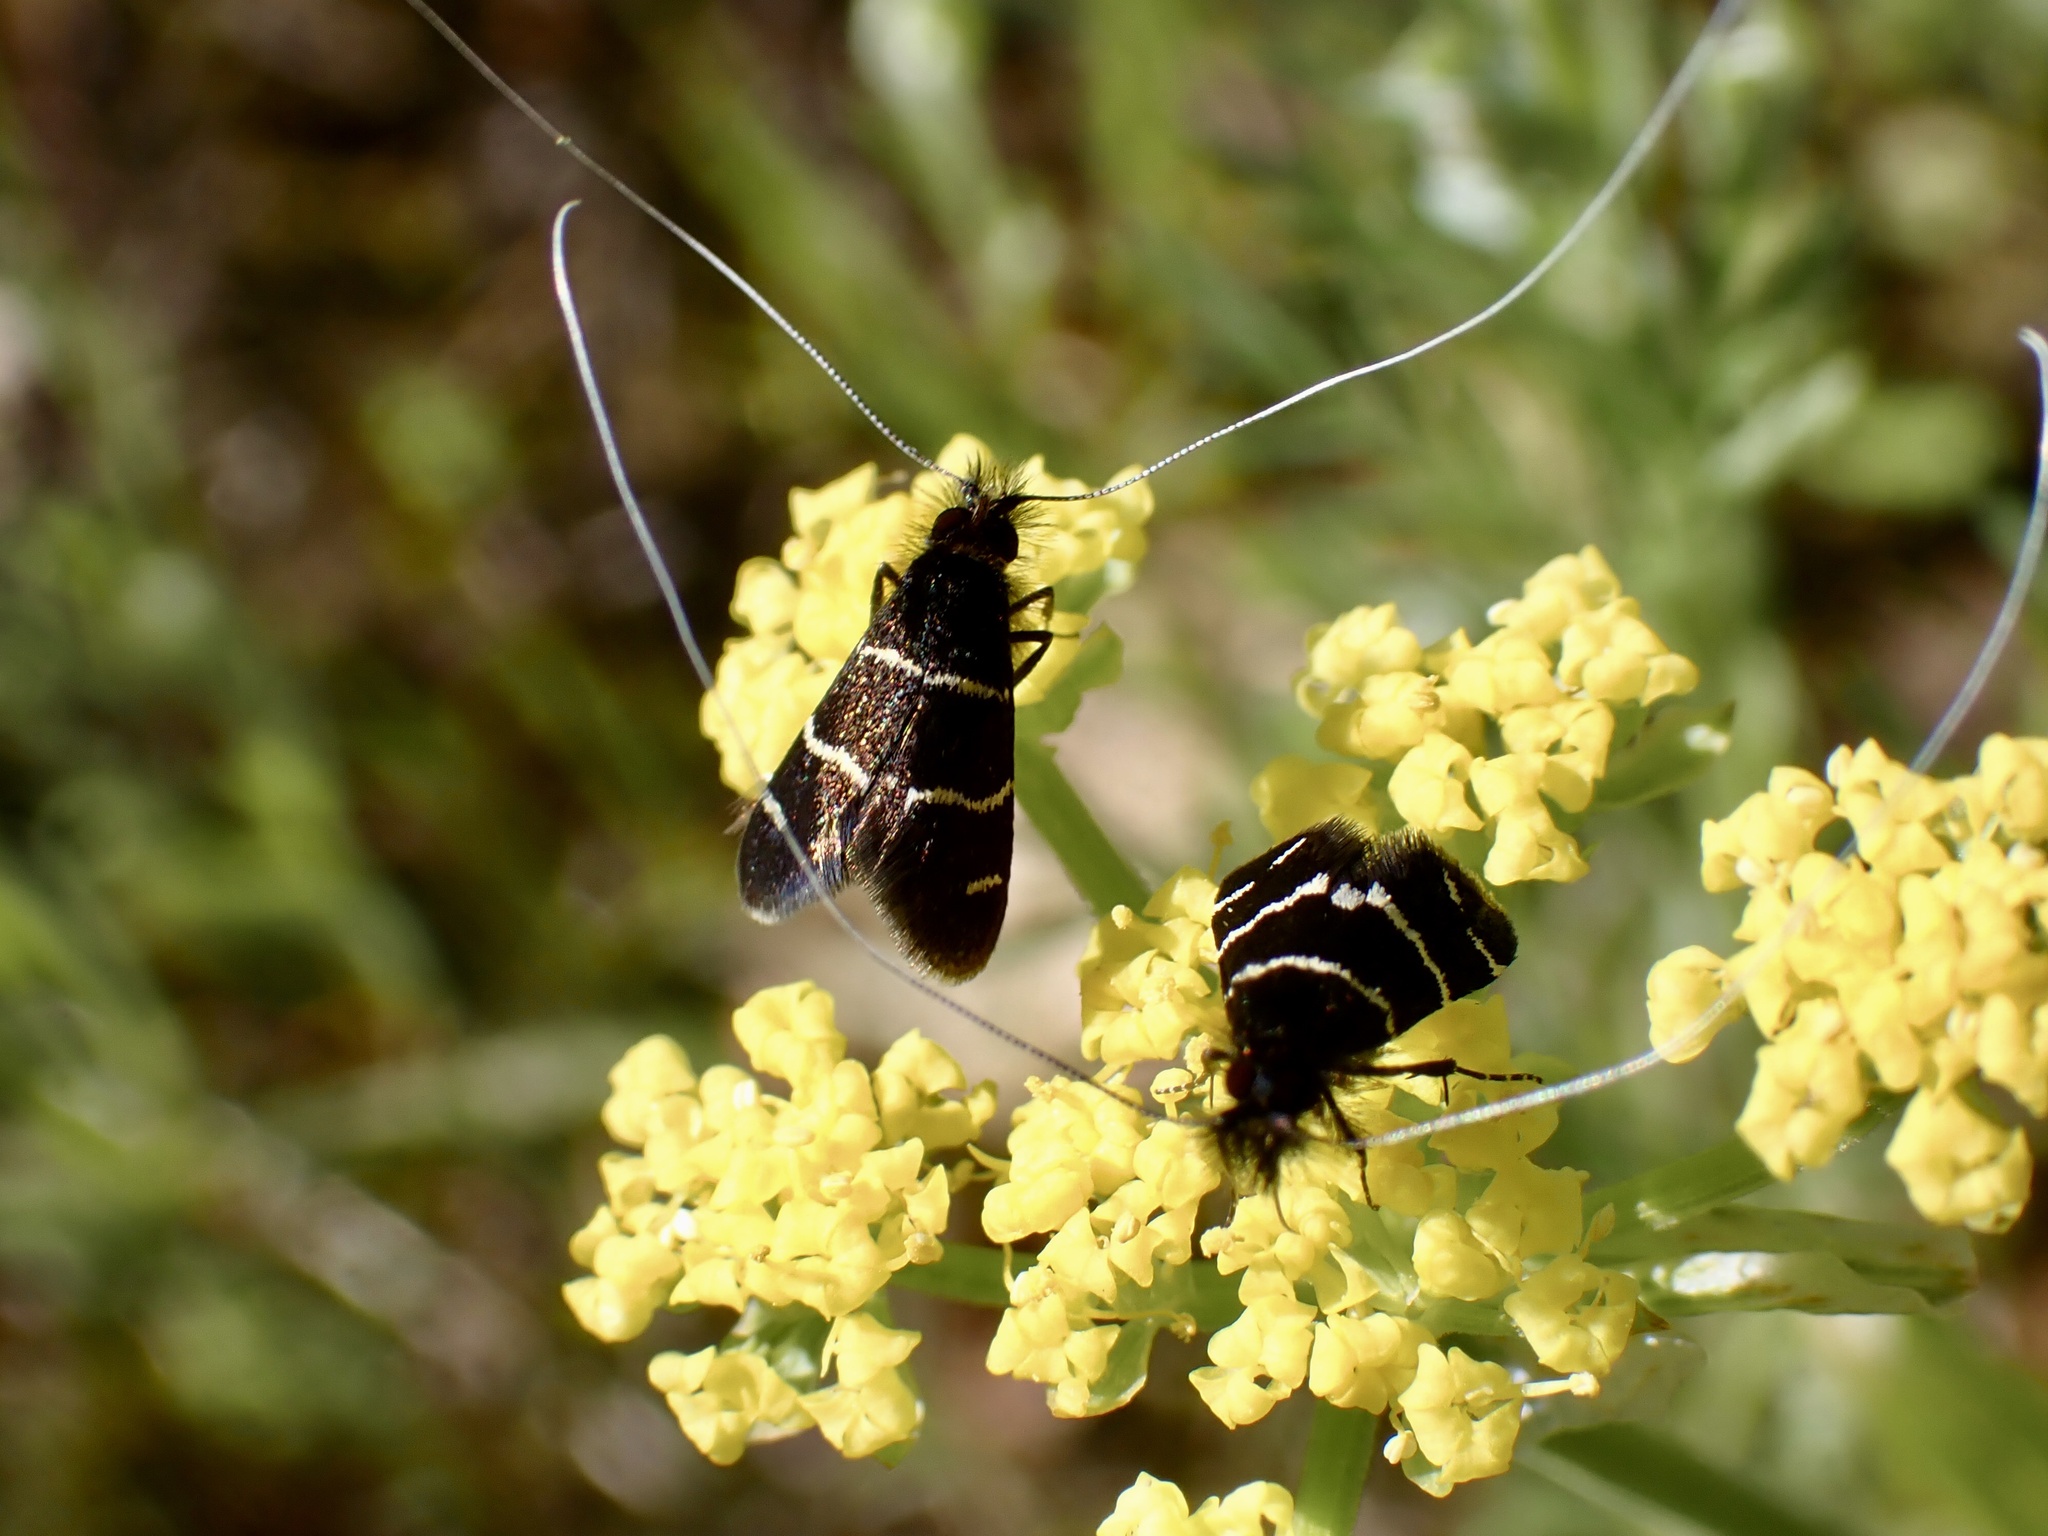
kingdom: Animalia
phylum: Arthropoda
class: Insecta
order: Lepidoptera
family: Adelidae
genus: Adela
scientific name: Adela trigrapha
